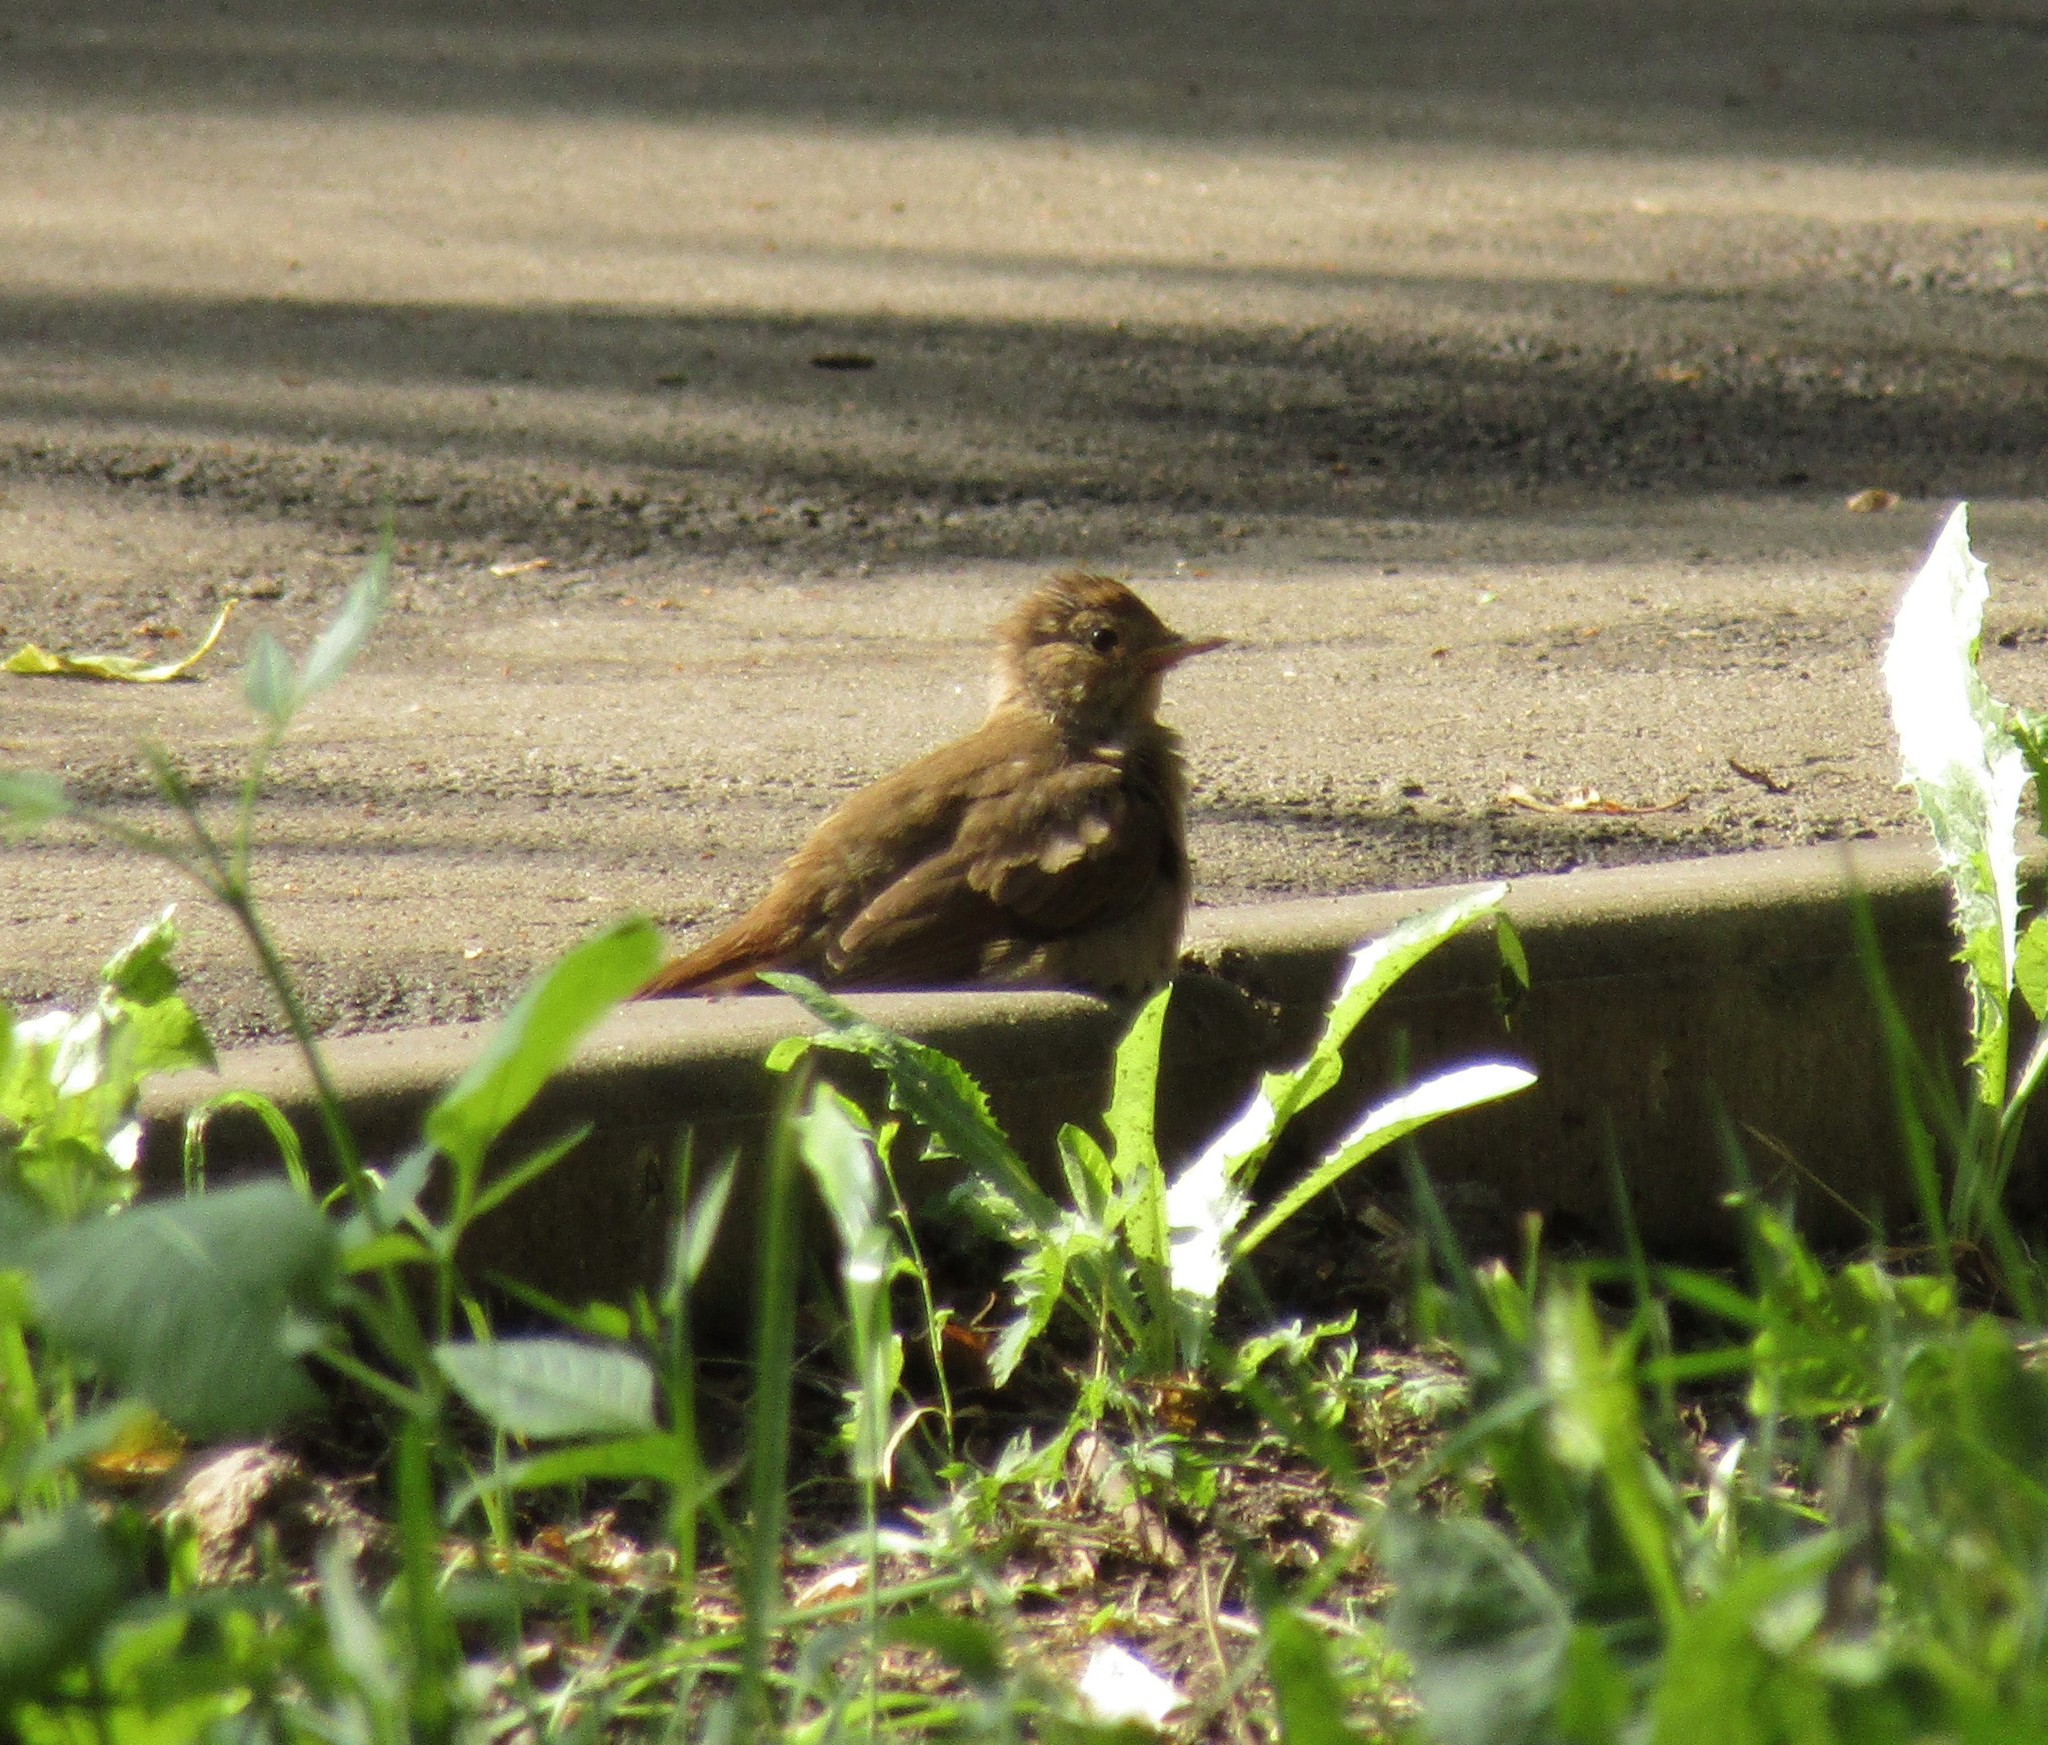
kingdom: Animalia
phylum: Chordata
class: Aves
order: Passeriformes
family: Muscicapidae
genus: Luscinia
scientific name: Luscinia luscinia
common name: Thrush nightingale
